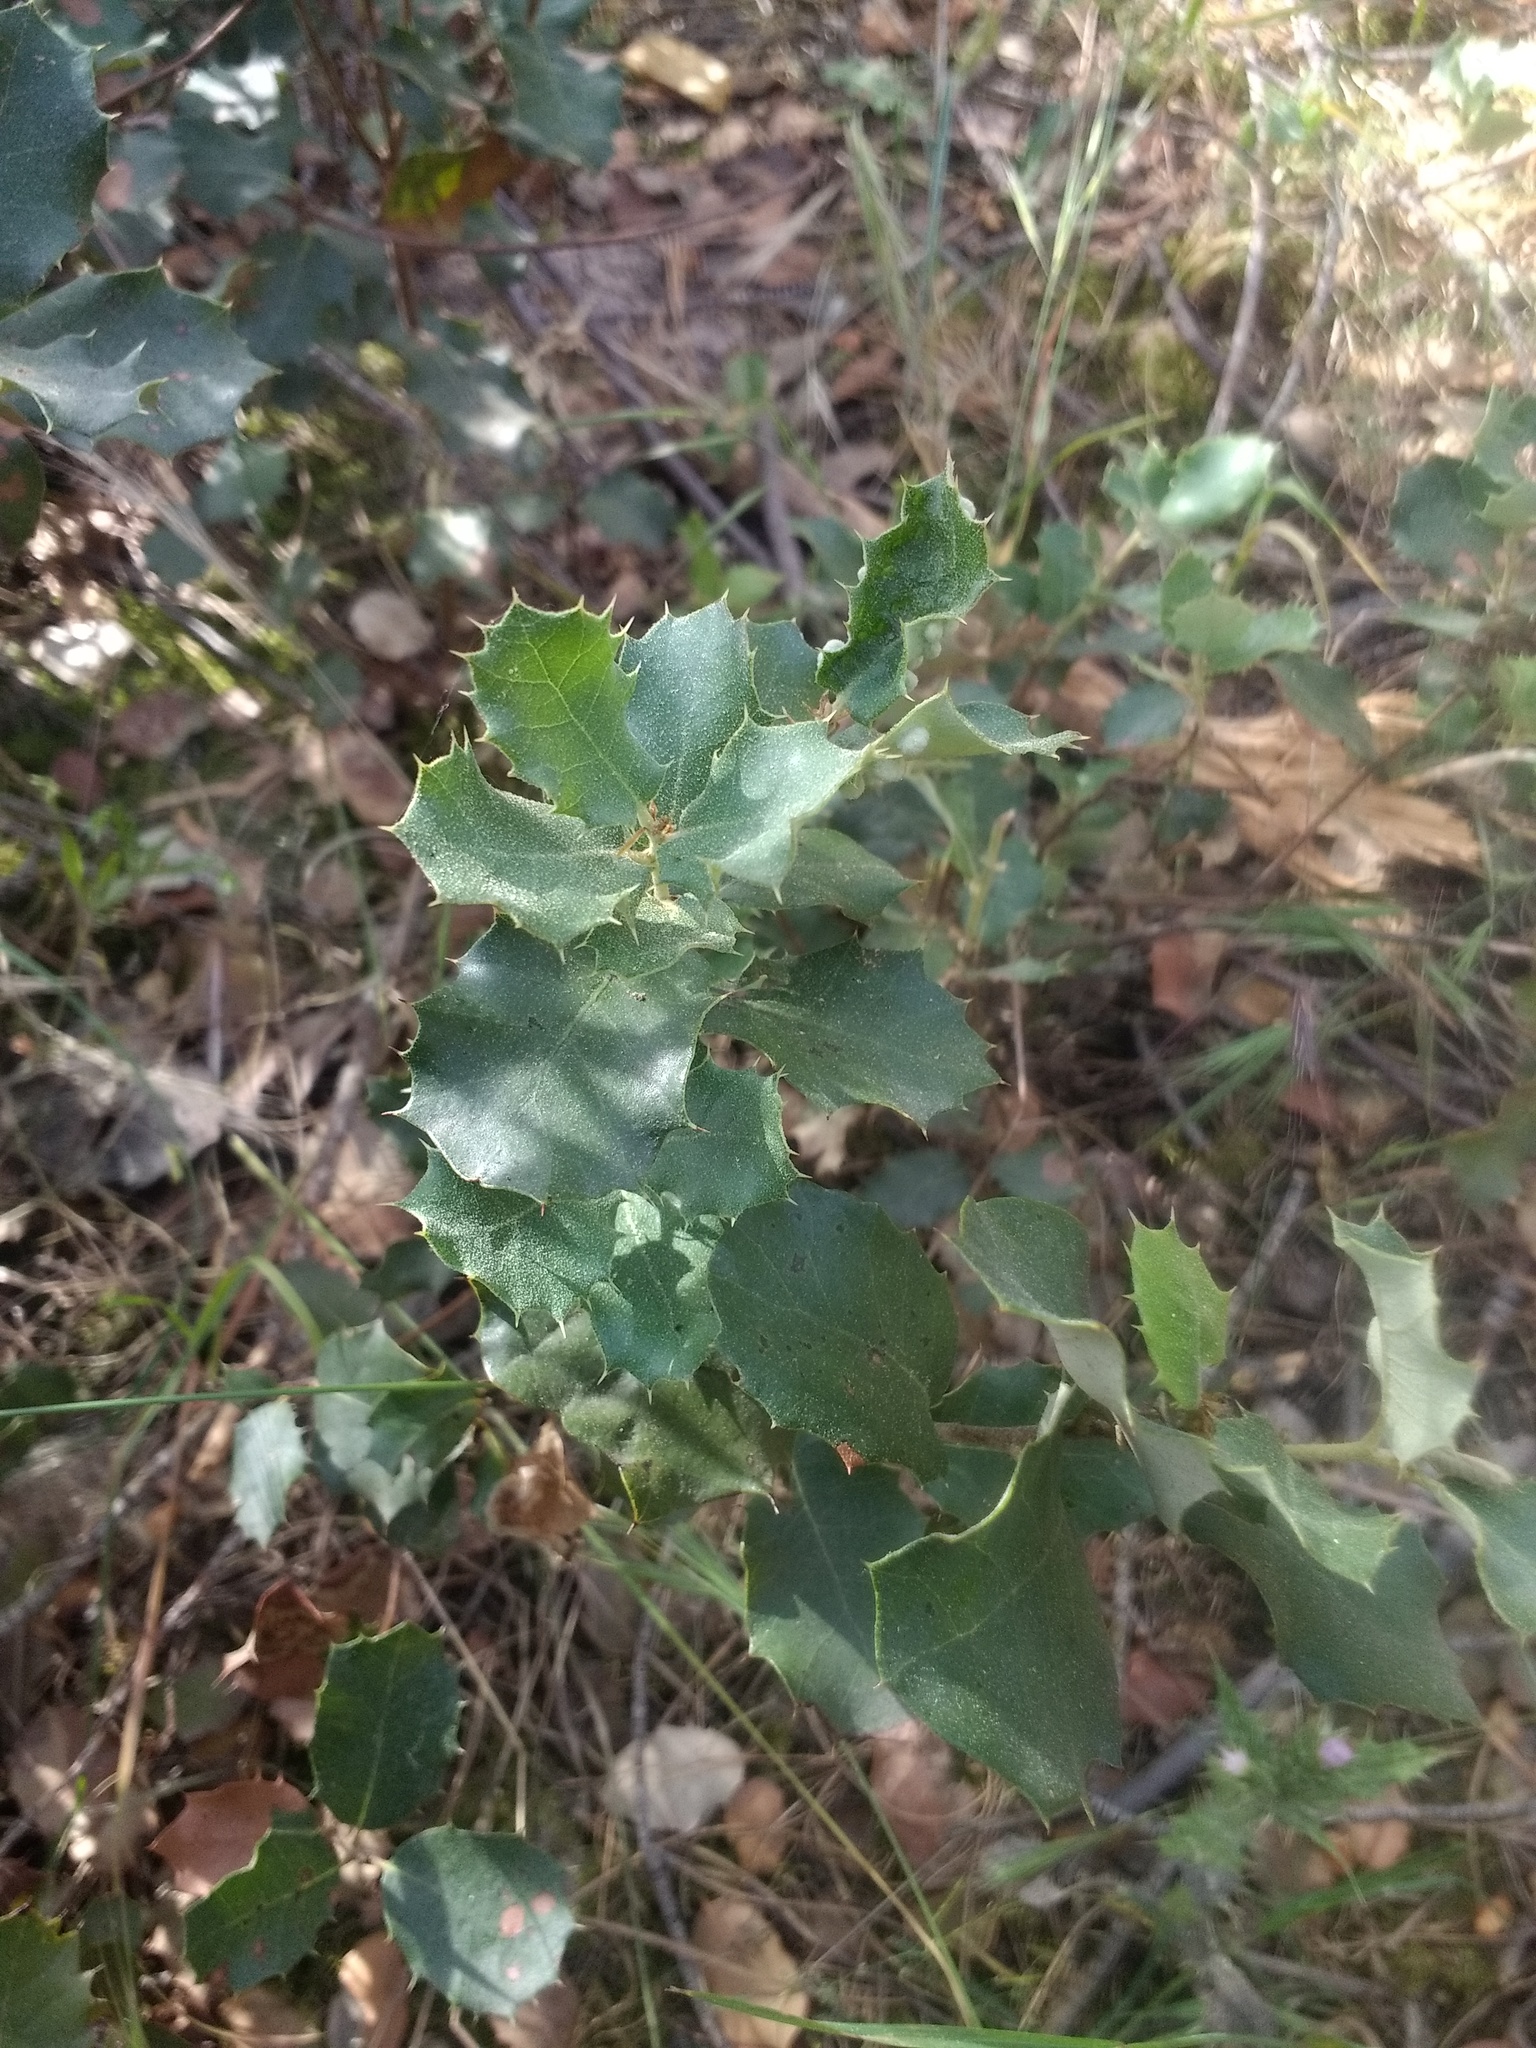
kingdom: Plantae
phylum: Tracheophyta
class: Magnoliopsida
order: Fagales
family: Fagaceae
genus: Quercus
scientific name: Quercus rotundifolia
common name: Holm oak
